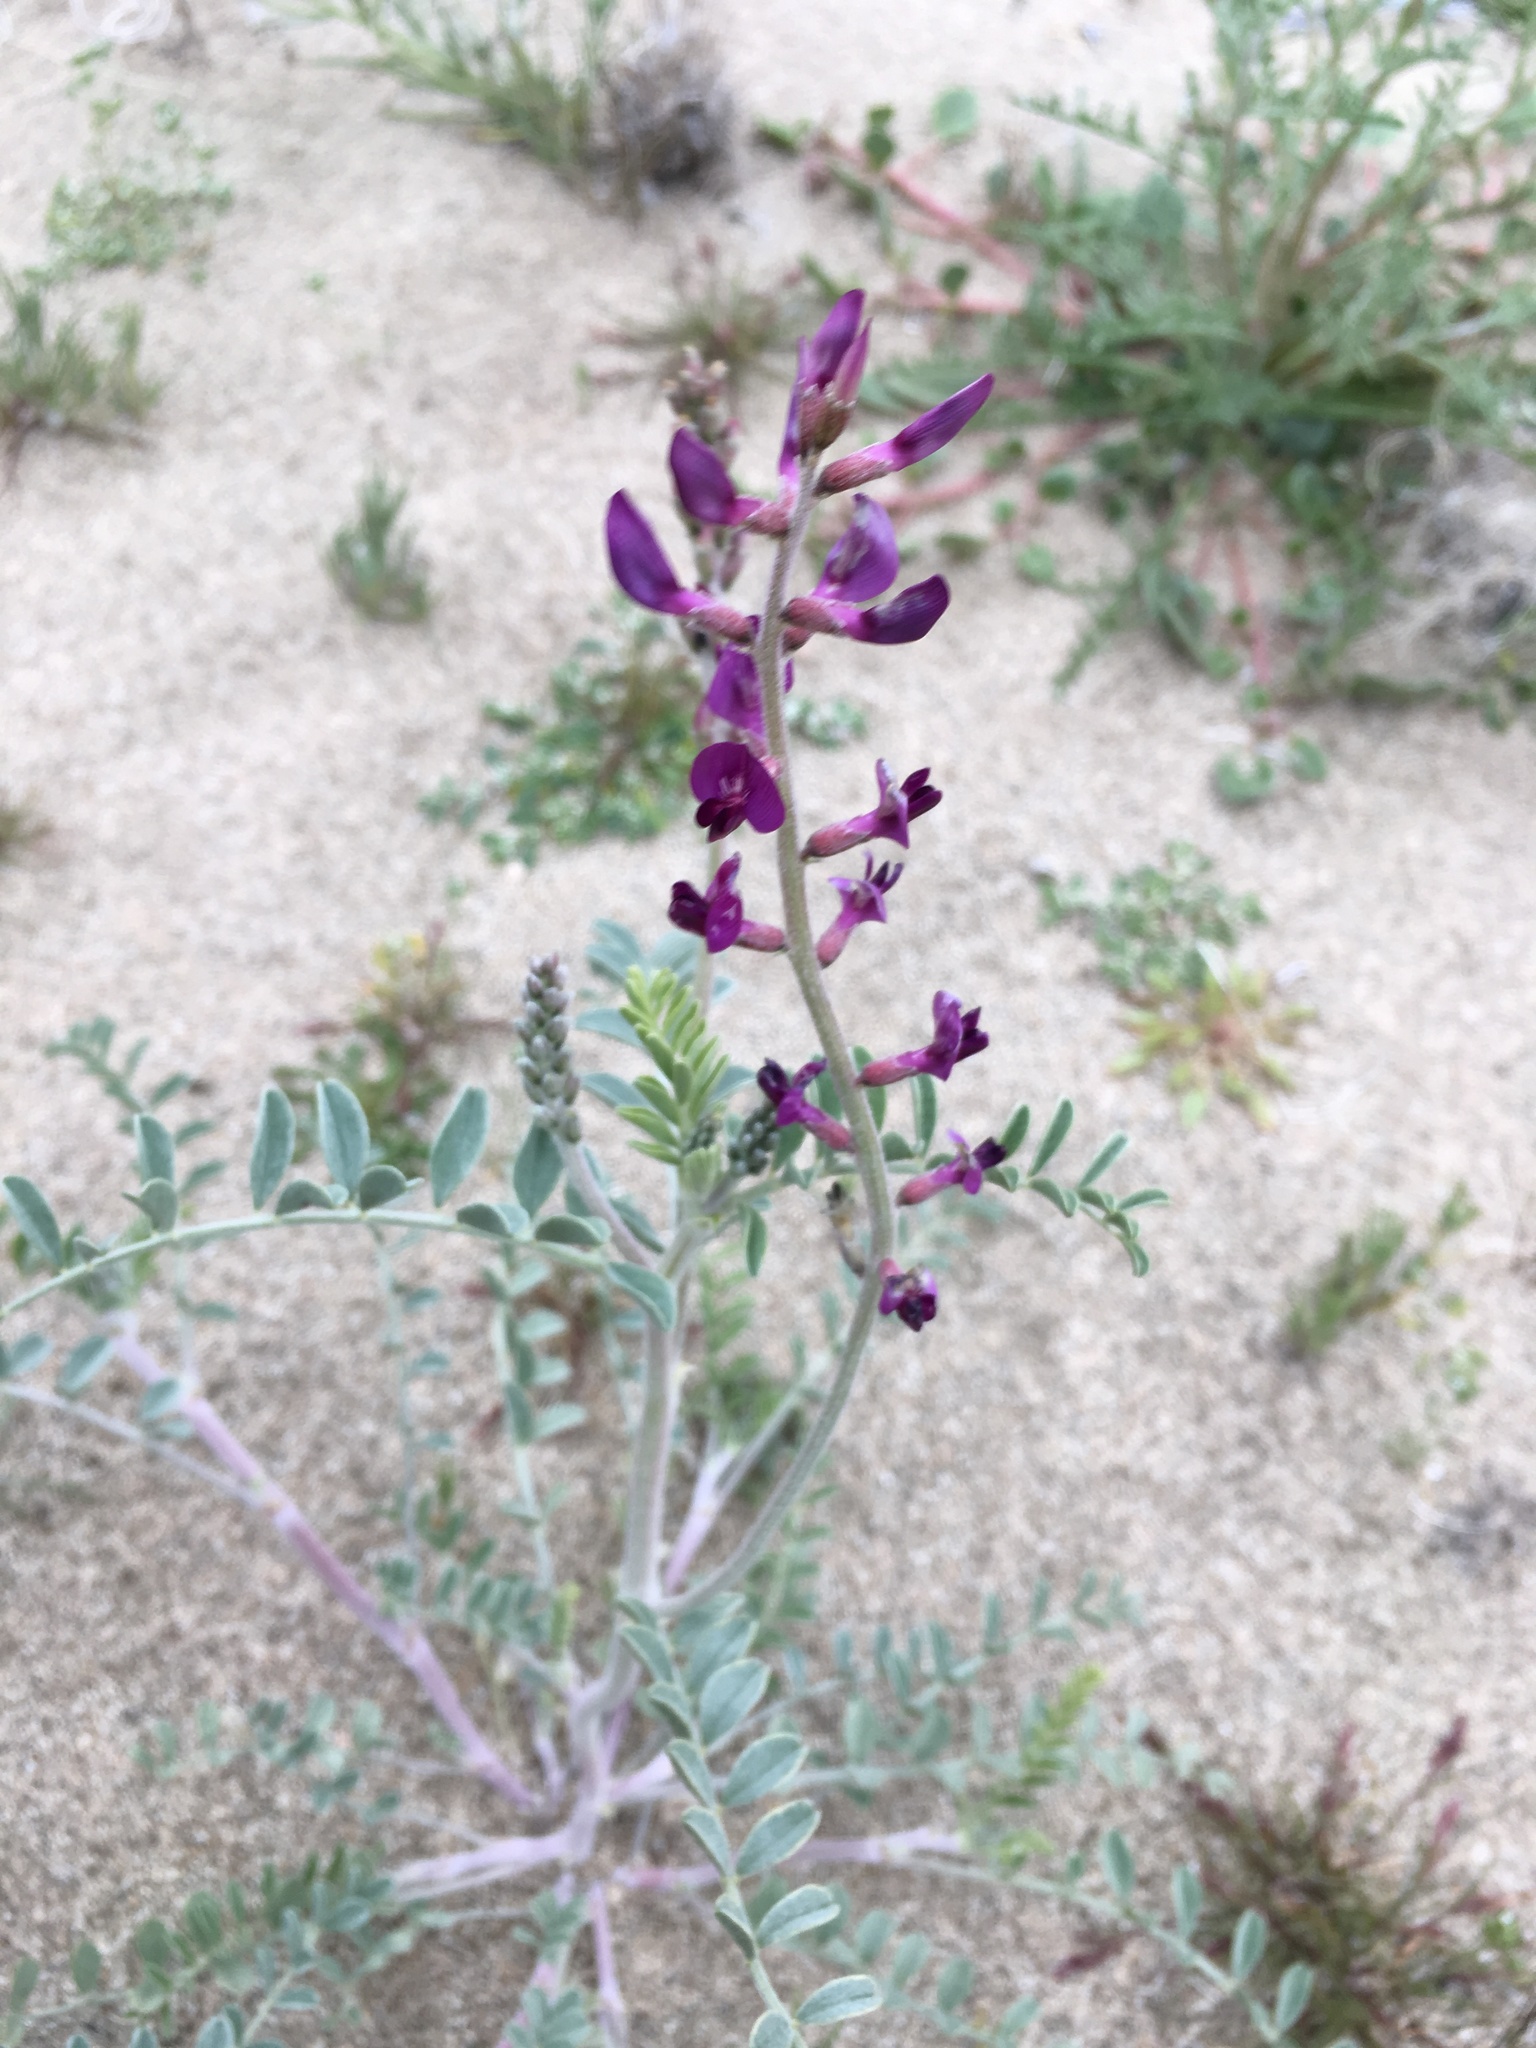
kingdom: Plantae
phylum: Tracheophyta
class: Magnoliopsida
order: Fabales
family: Fabaceae
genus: Astragalus
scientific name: Astragalus lentiginosus
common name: Freckled milkvetch
